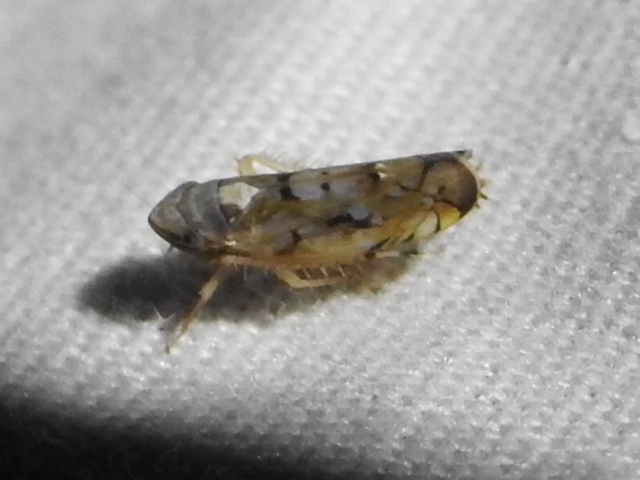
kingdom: Animalia
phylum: Arthropoda
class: Insecta
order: Hemiptera
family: Cicadellidae
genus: Scaphoideus
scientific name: Scaphoideus opalinus
